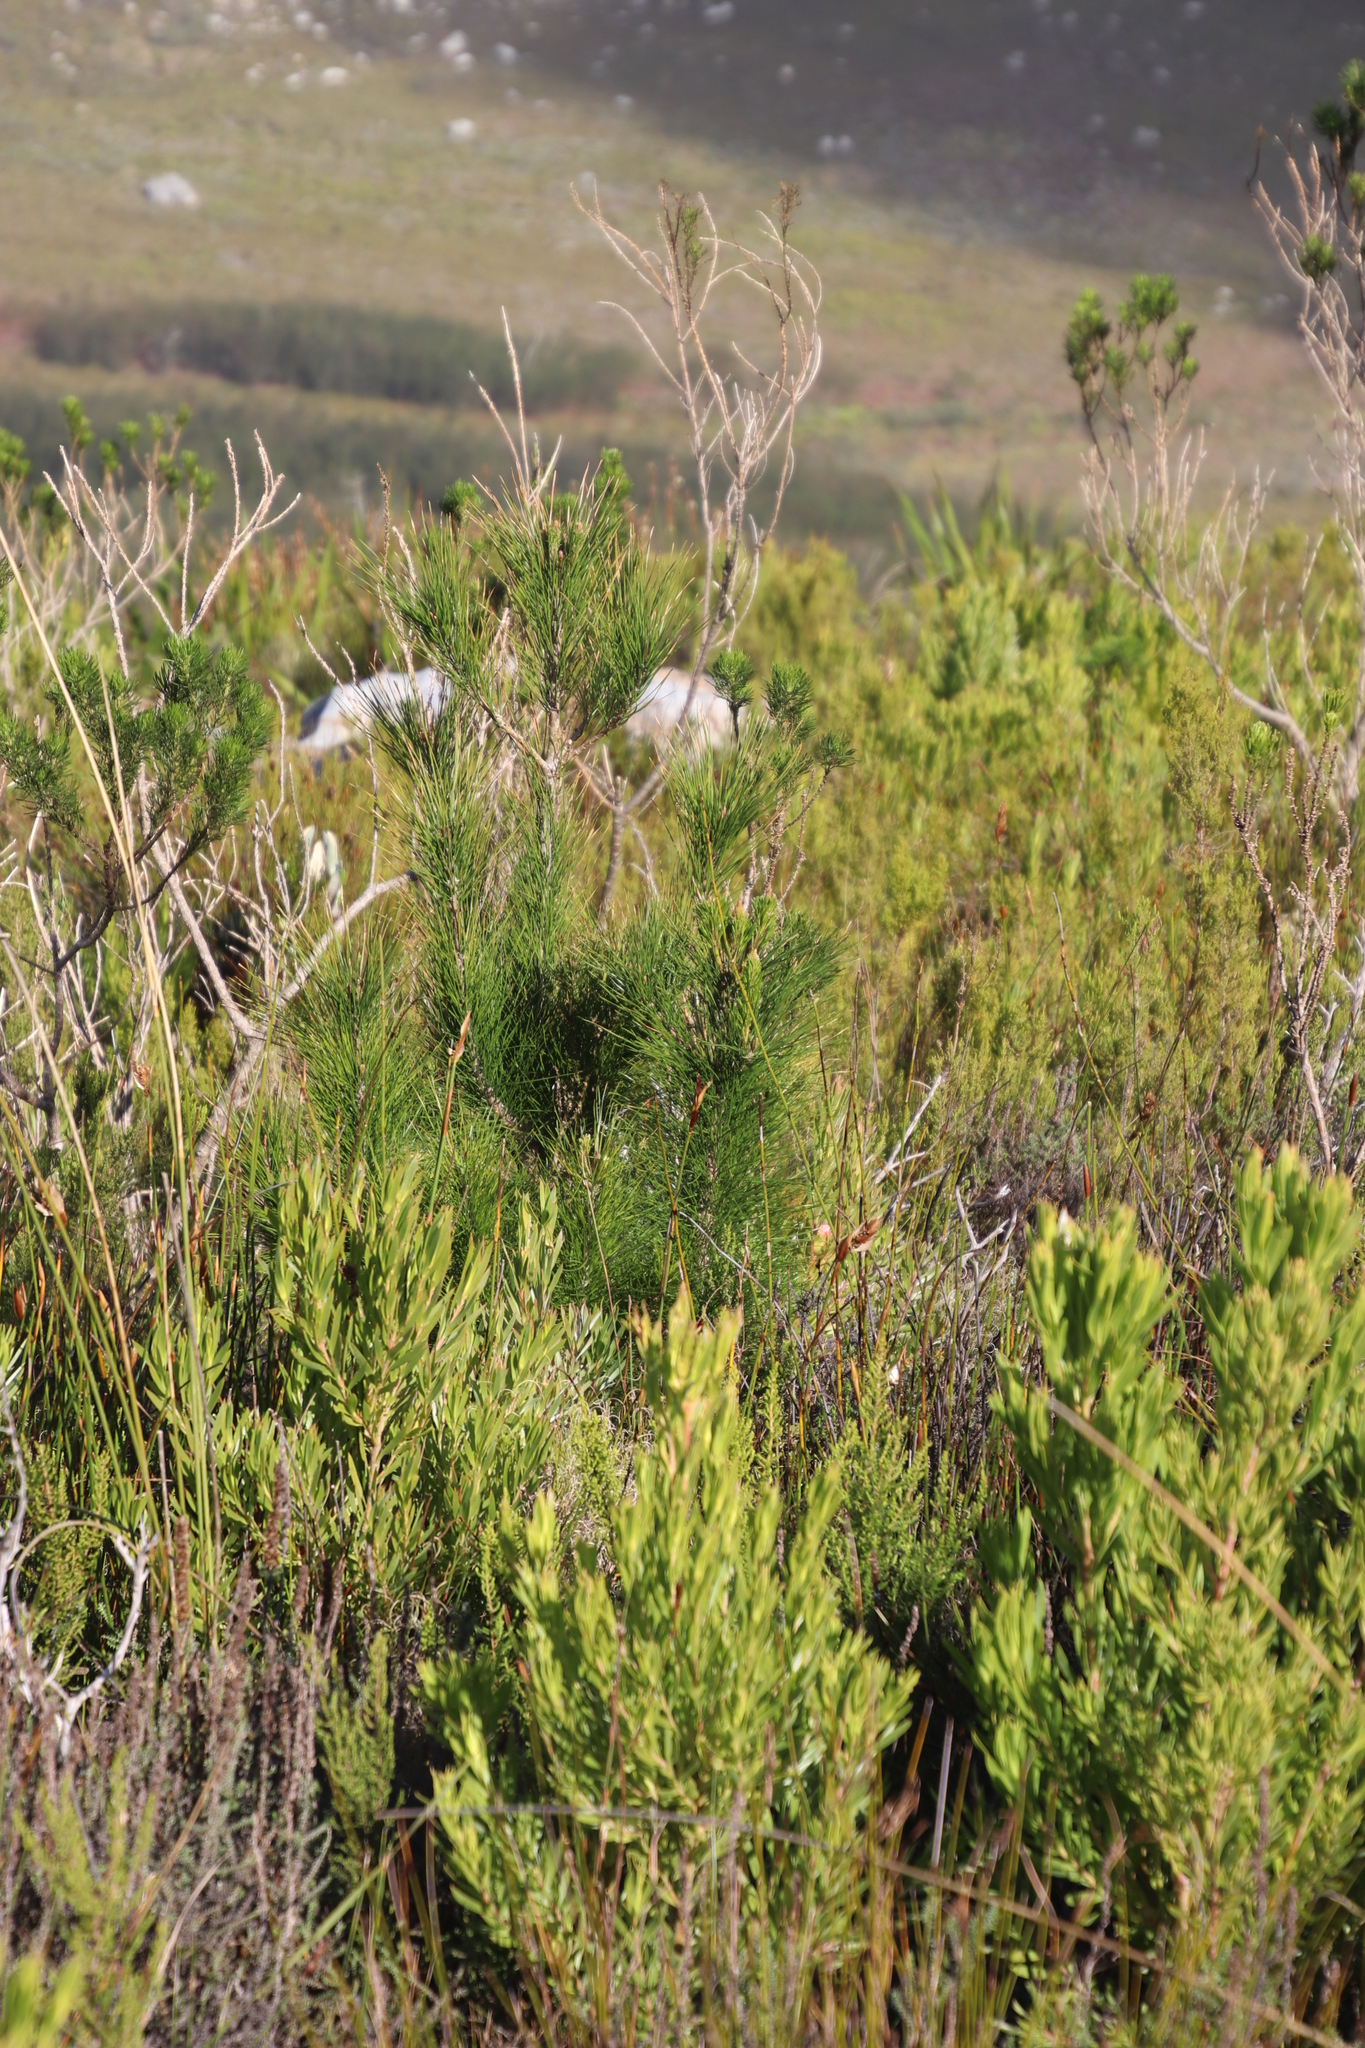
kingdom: Plantae
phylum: Tracheophyta
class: Pinopsida
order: Pinales
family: Pinaceae
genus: Pinus
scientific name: Pinus radiata
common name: Monterey pine
